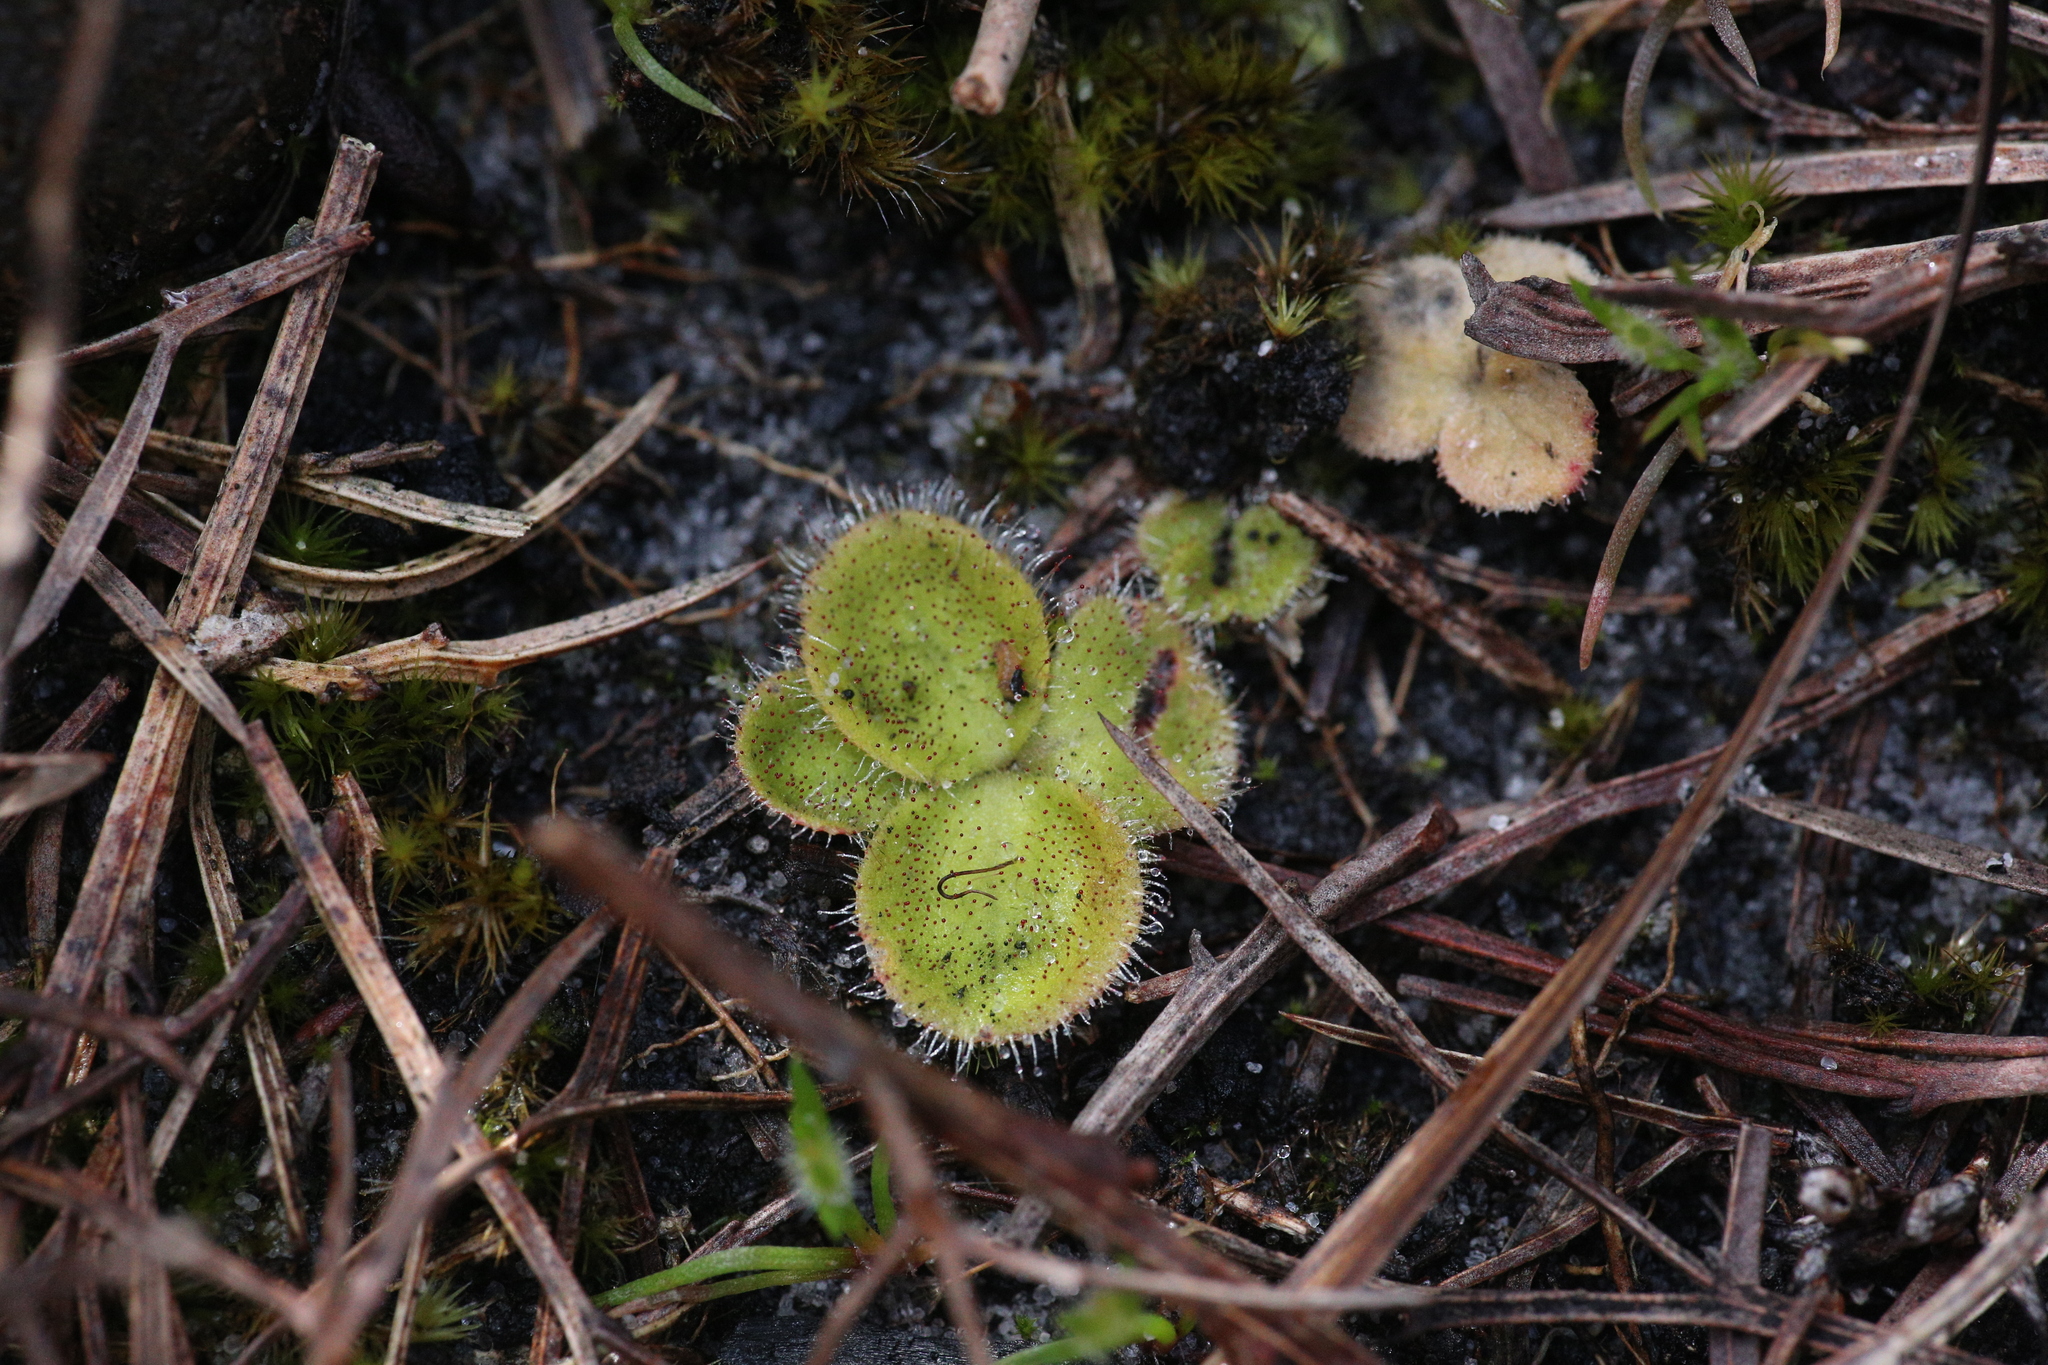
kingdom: Plantae
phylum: Tracheophyta
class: Magnoliopsida
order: Caryophyllales
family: Droseraceae
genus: Drosera
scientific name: Drosera erythrorhiza
